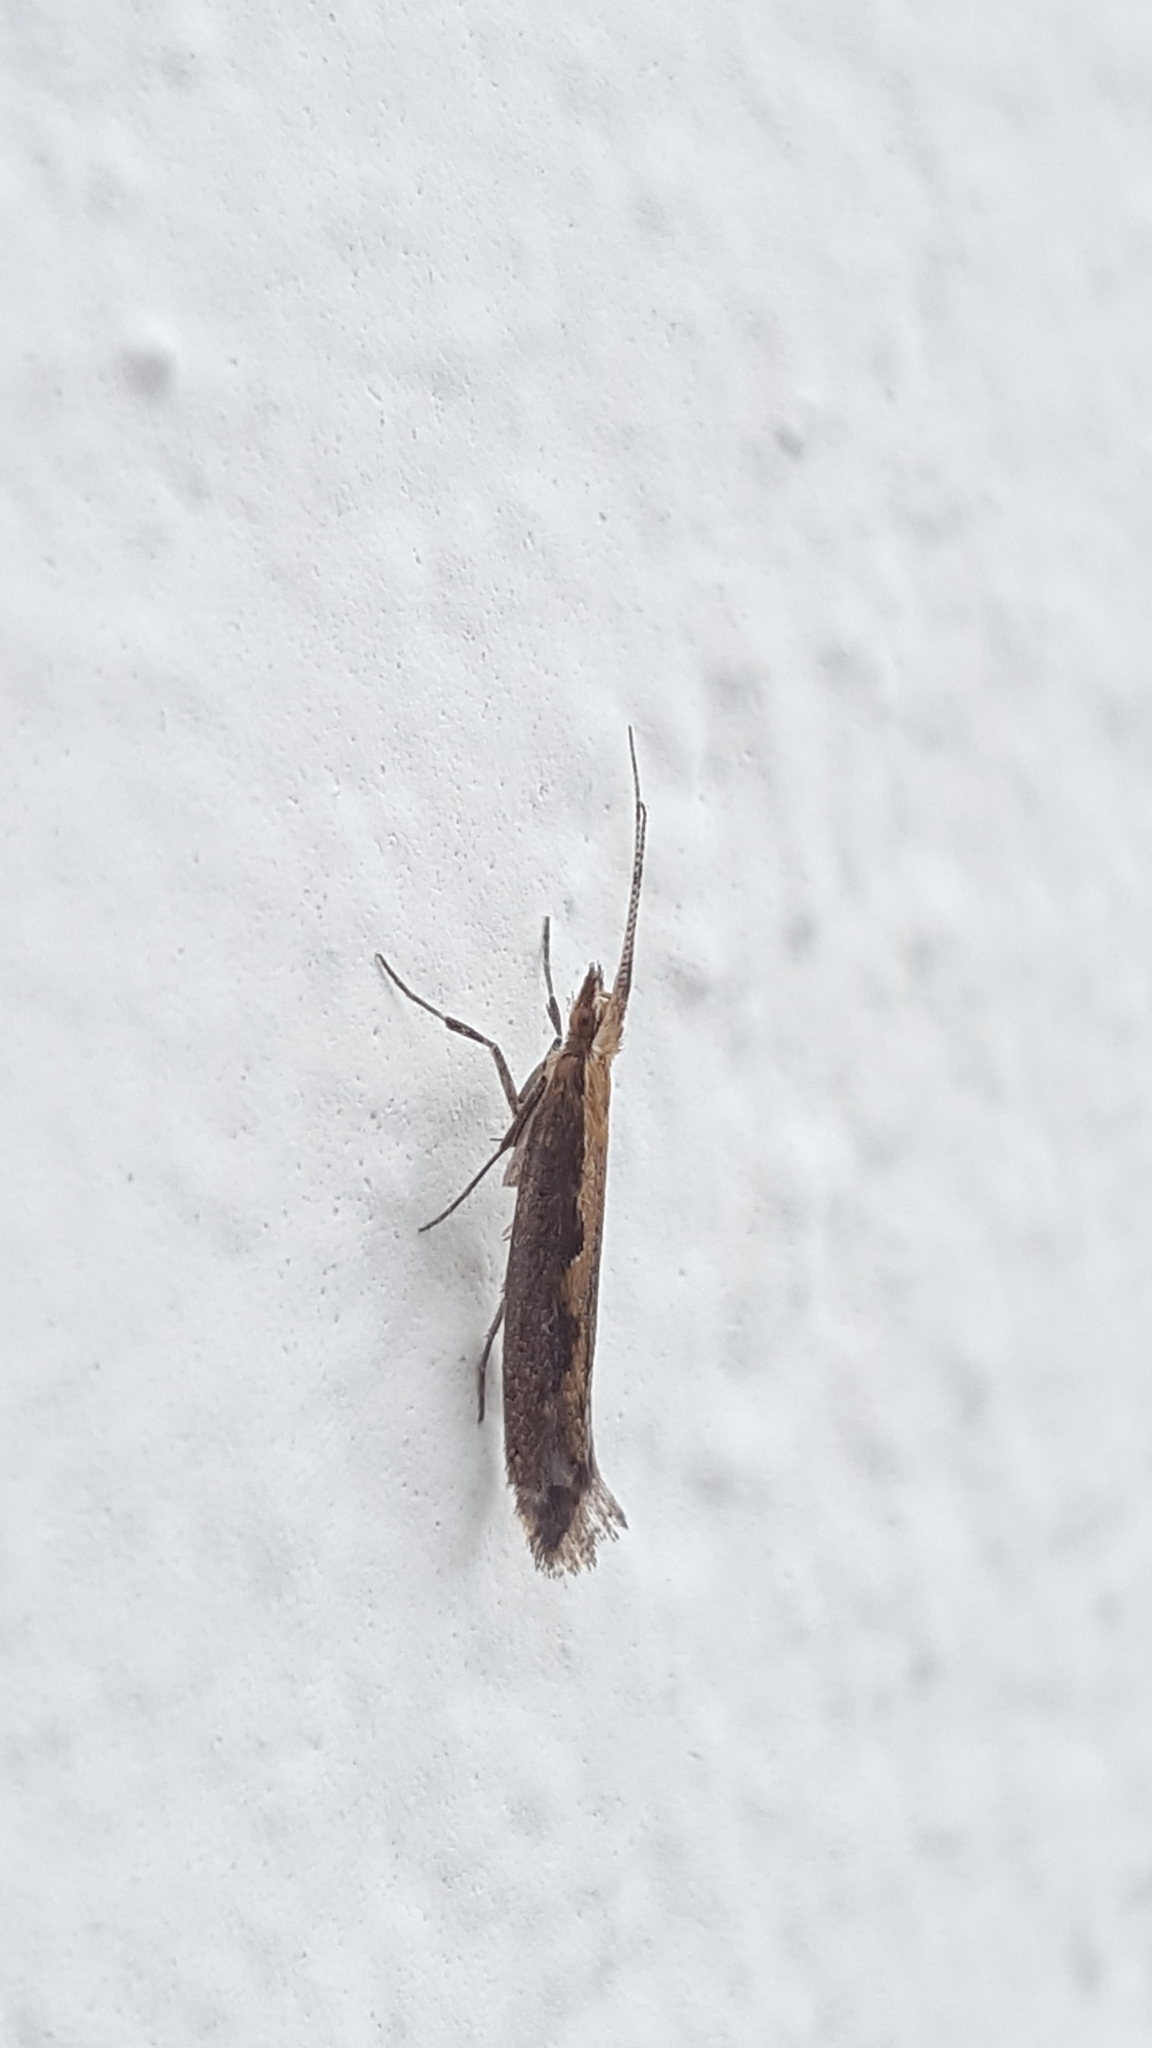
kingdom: Animalia
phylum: Arthropoda
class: Insecta
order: Lepidoptera
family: Plutellidae
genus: Plutella
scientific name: Plutella xylostella
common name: Diamond-back moth
